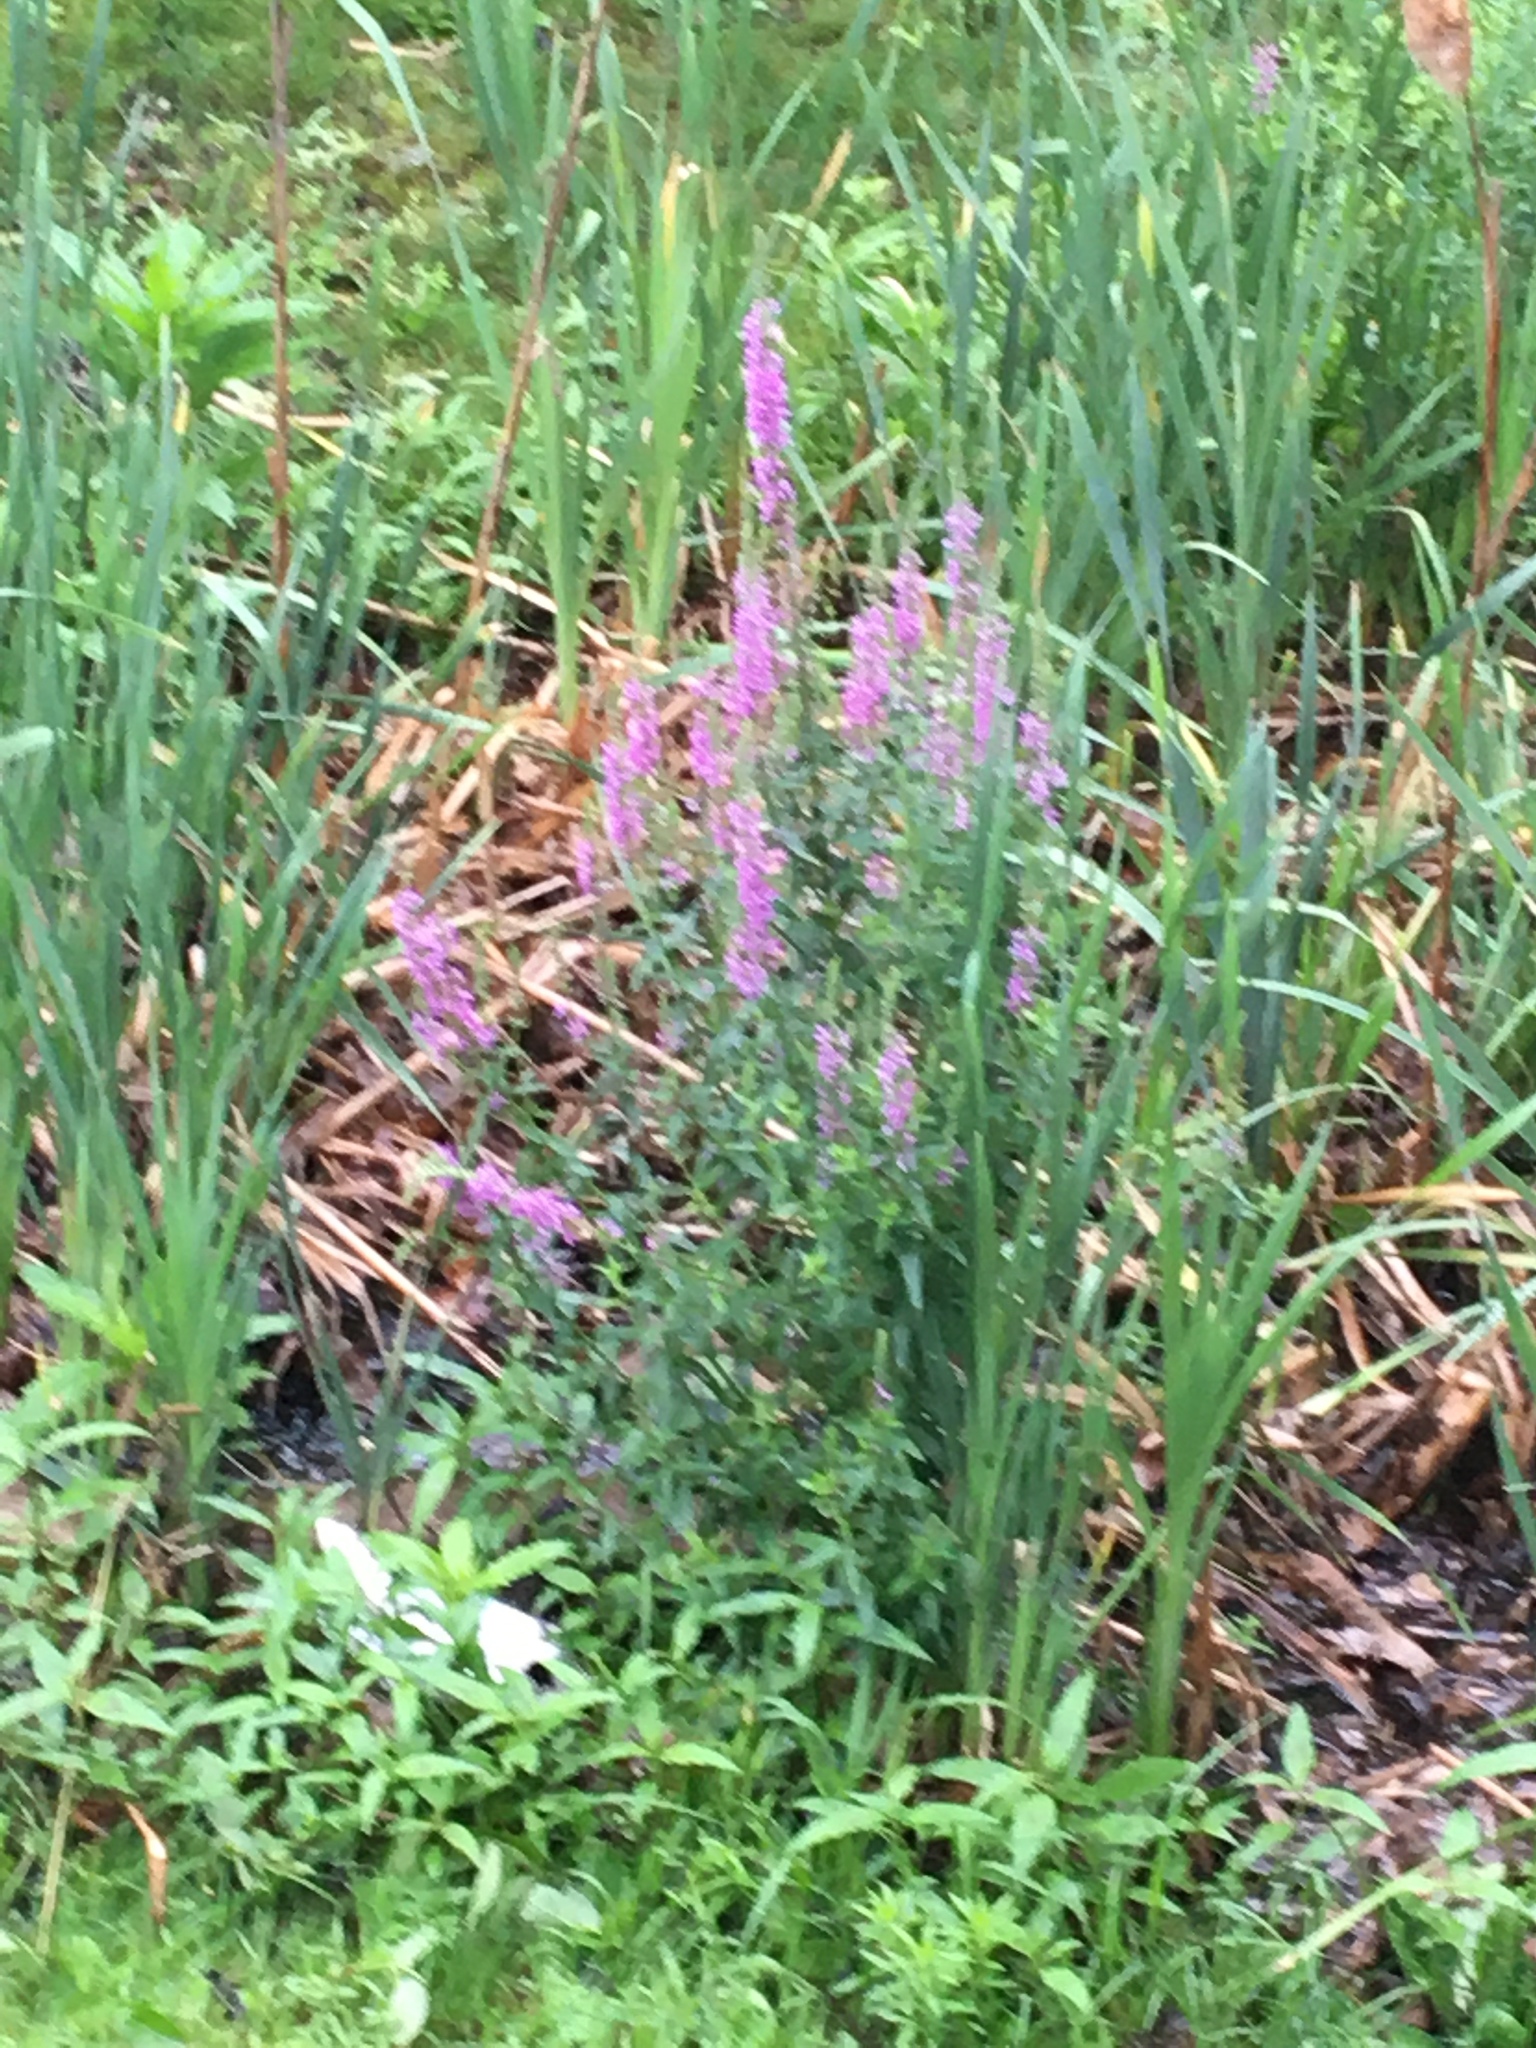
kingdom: Plantae
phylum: Tracheophyta
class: Magnoliopsida
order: Myrtales
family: Lythraceae
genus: Lythrum
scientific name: Lythrum salicaria
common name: Purple loosestrife
